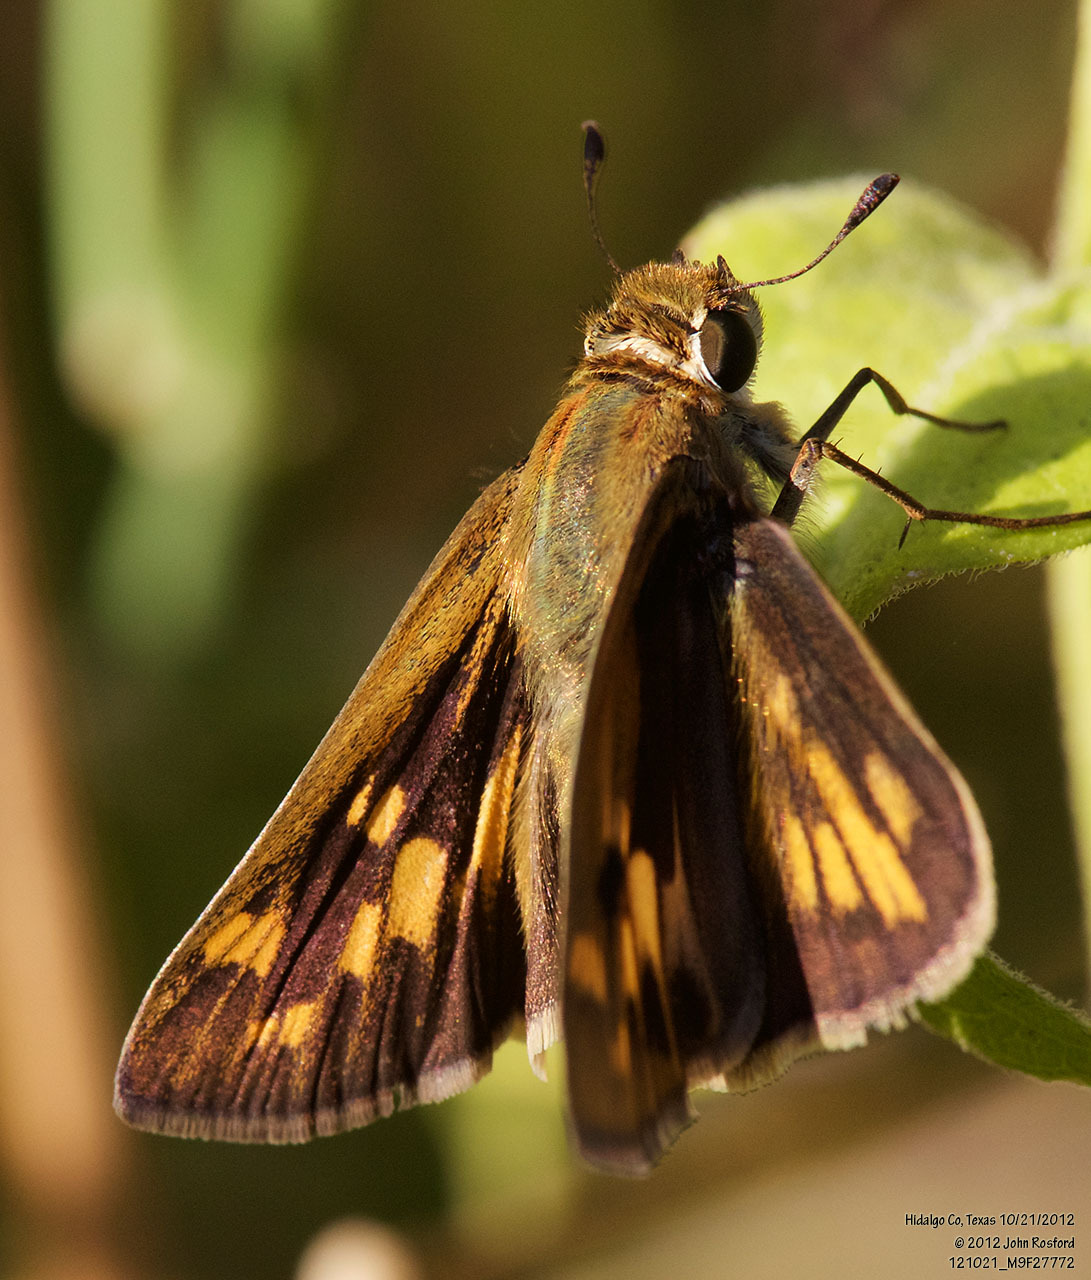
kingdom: Animalia
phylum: Arthropoda
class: Insecta
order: Lepidoptera
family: Hesperiidae
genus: Hylephila
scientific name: Hylephila phyleus
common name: Fiery skipper
